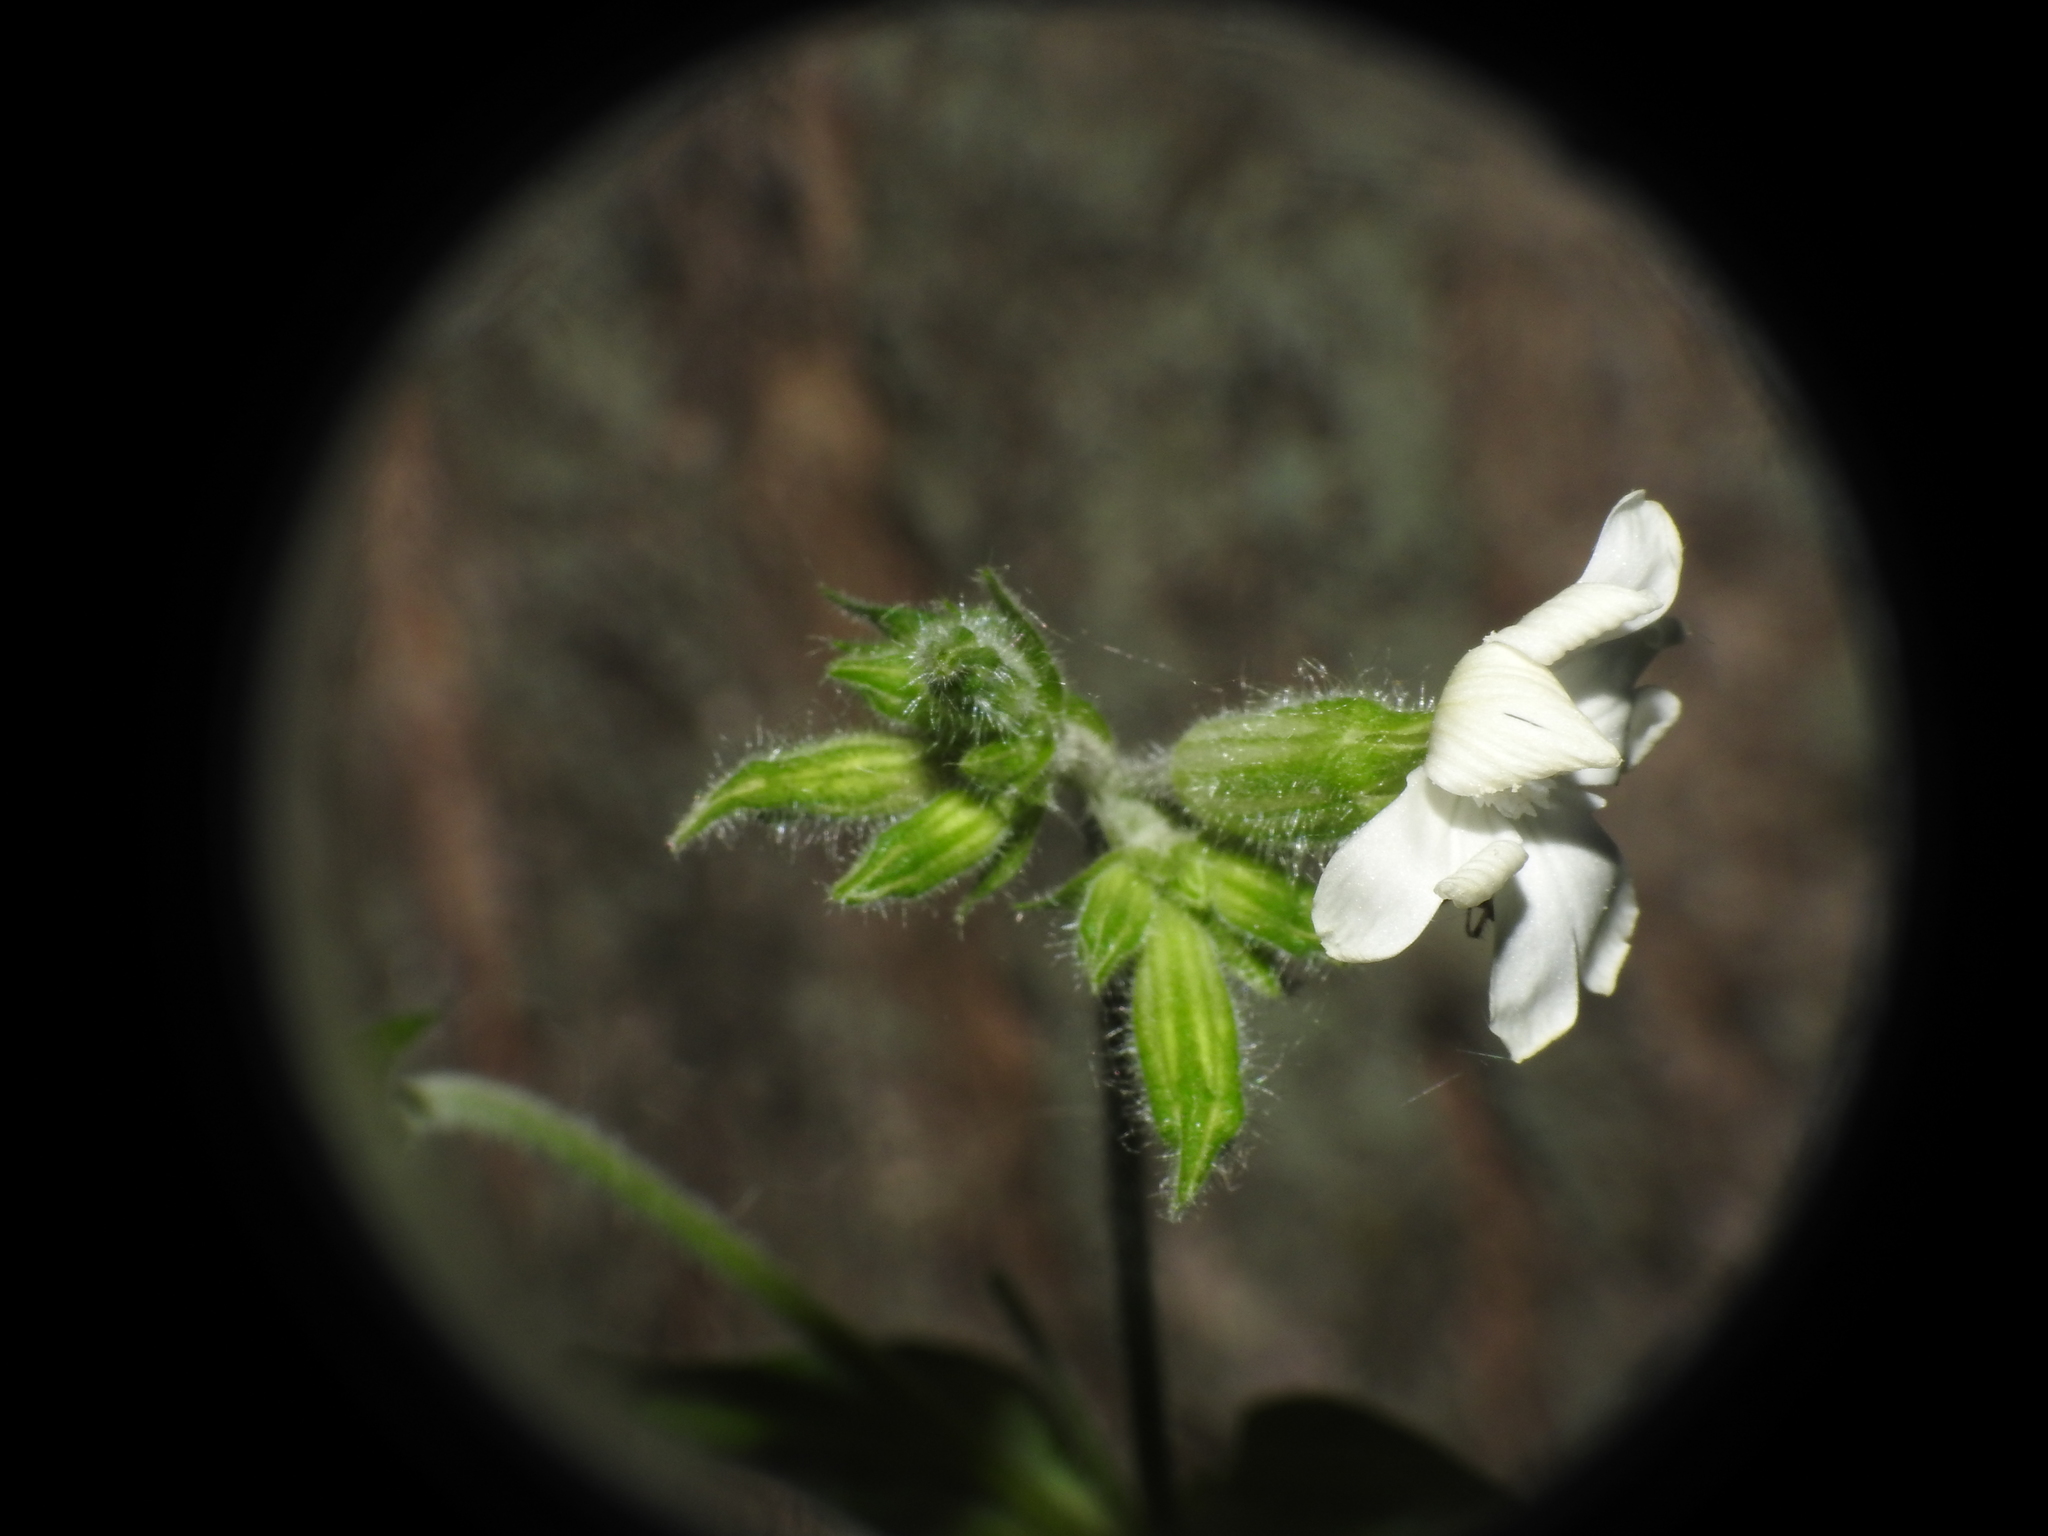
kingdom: Plantae
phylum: Tracheophyta
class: Magnoliopsida
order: Caryophyllales
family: Caryophyllaceae
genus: Silene
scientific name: Silene latifolia
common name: White campion
